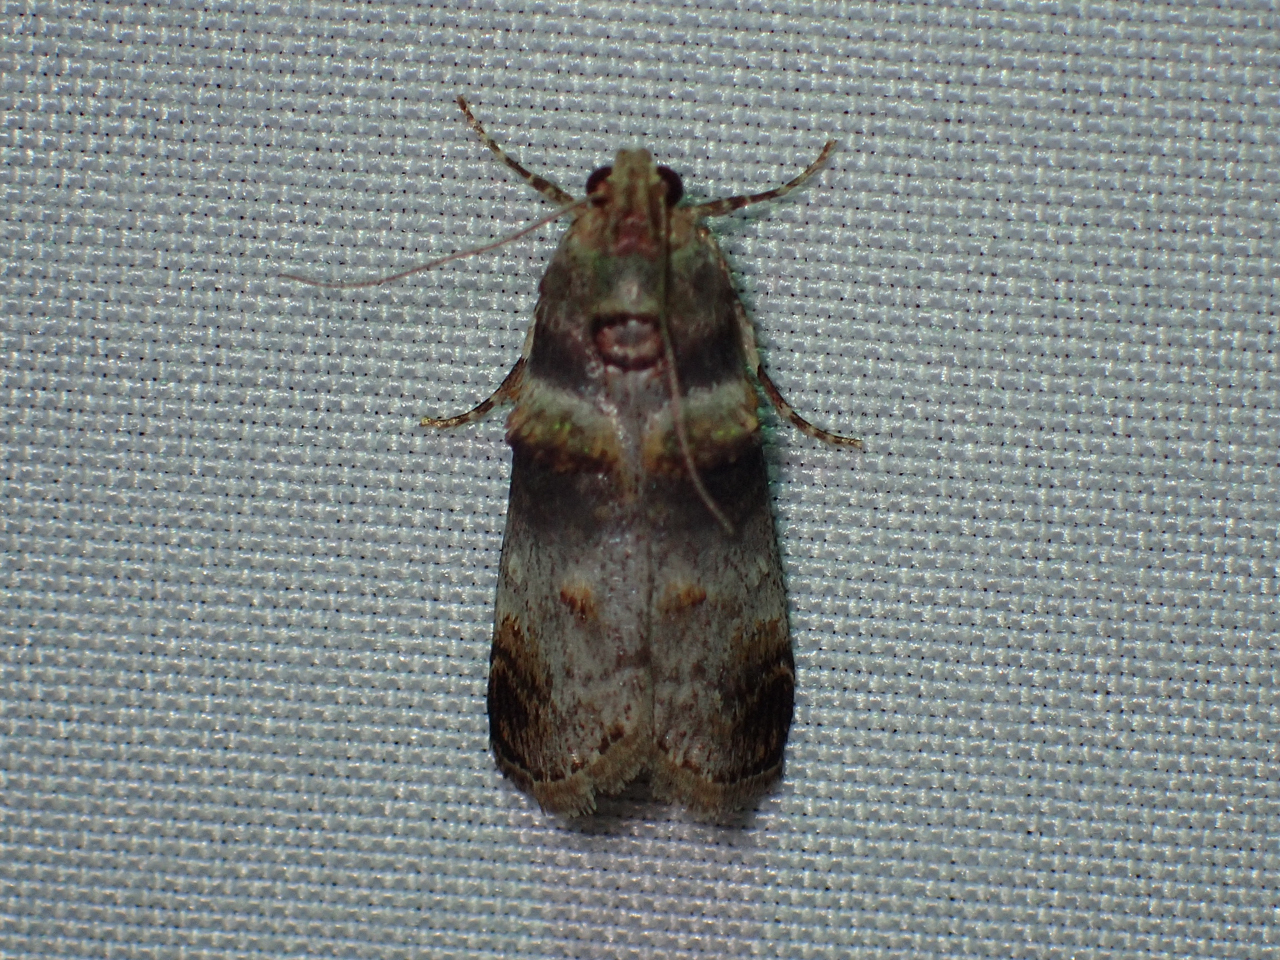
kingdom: Animalia
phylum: Arthropoda
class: Insecta
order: Lepidoptera
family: Pyralidae
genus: Oneida
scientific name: Oneida lunulalis
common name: Orange-tufted oneida moth
